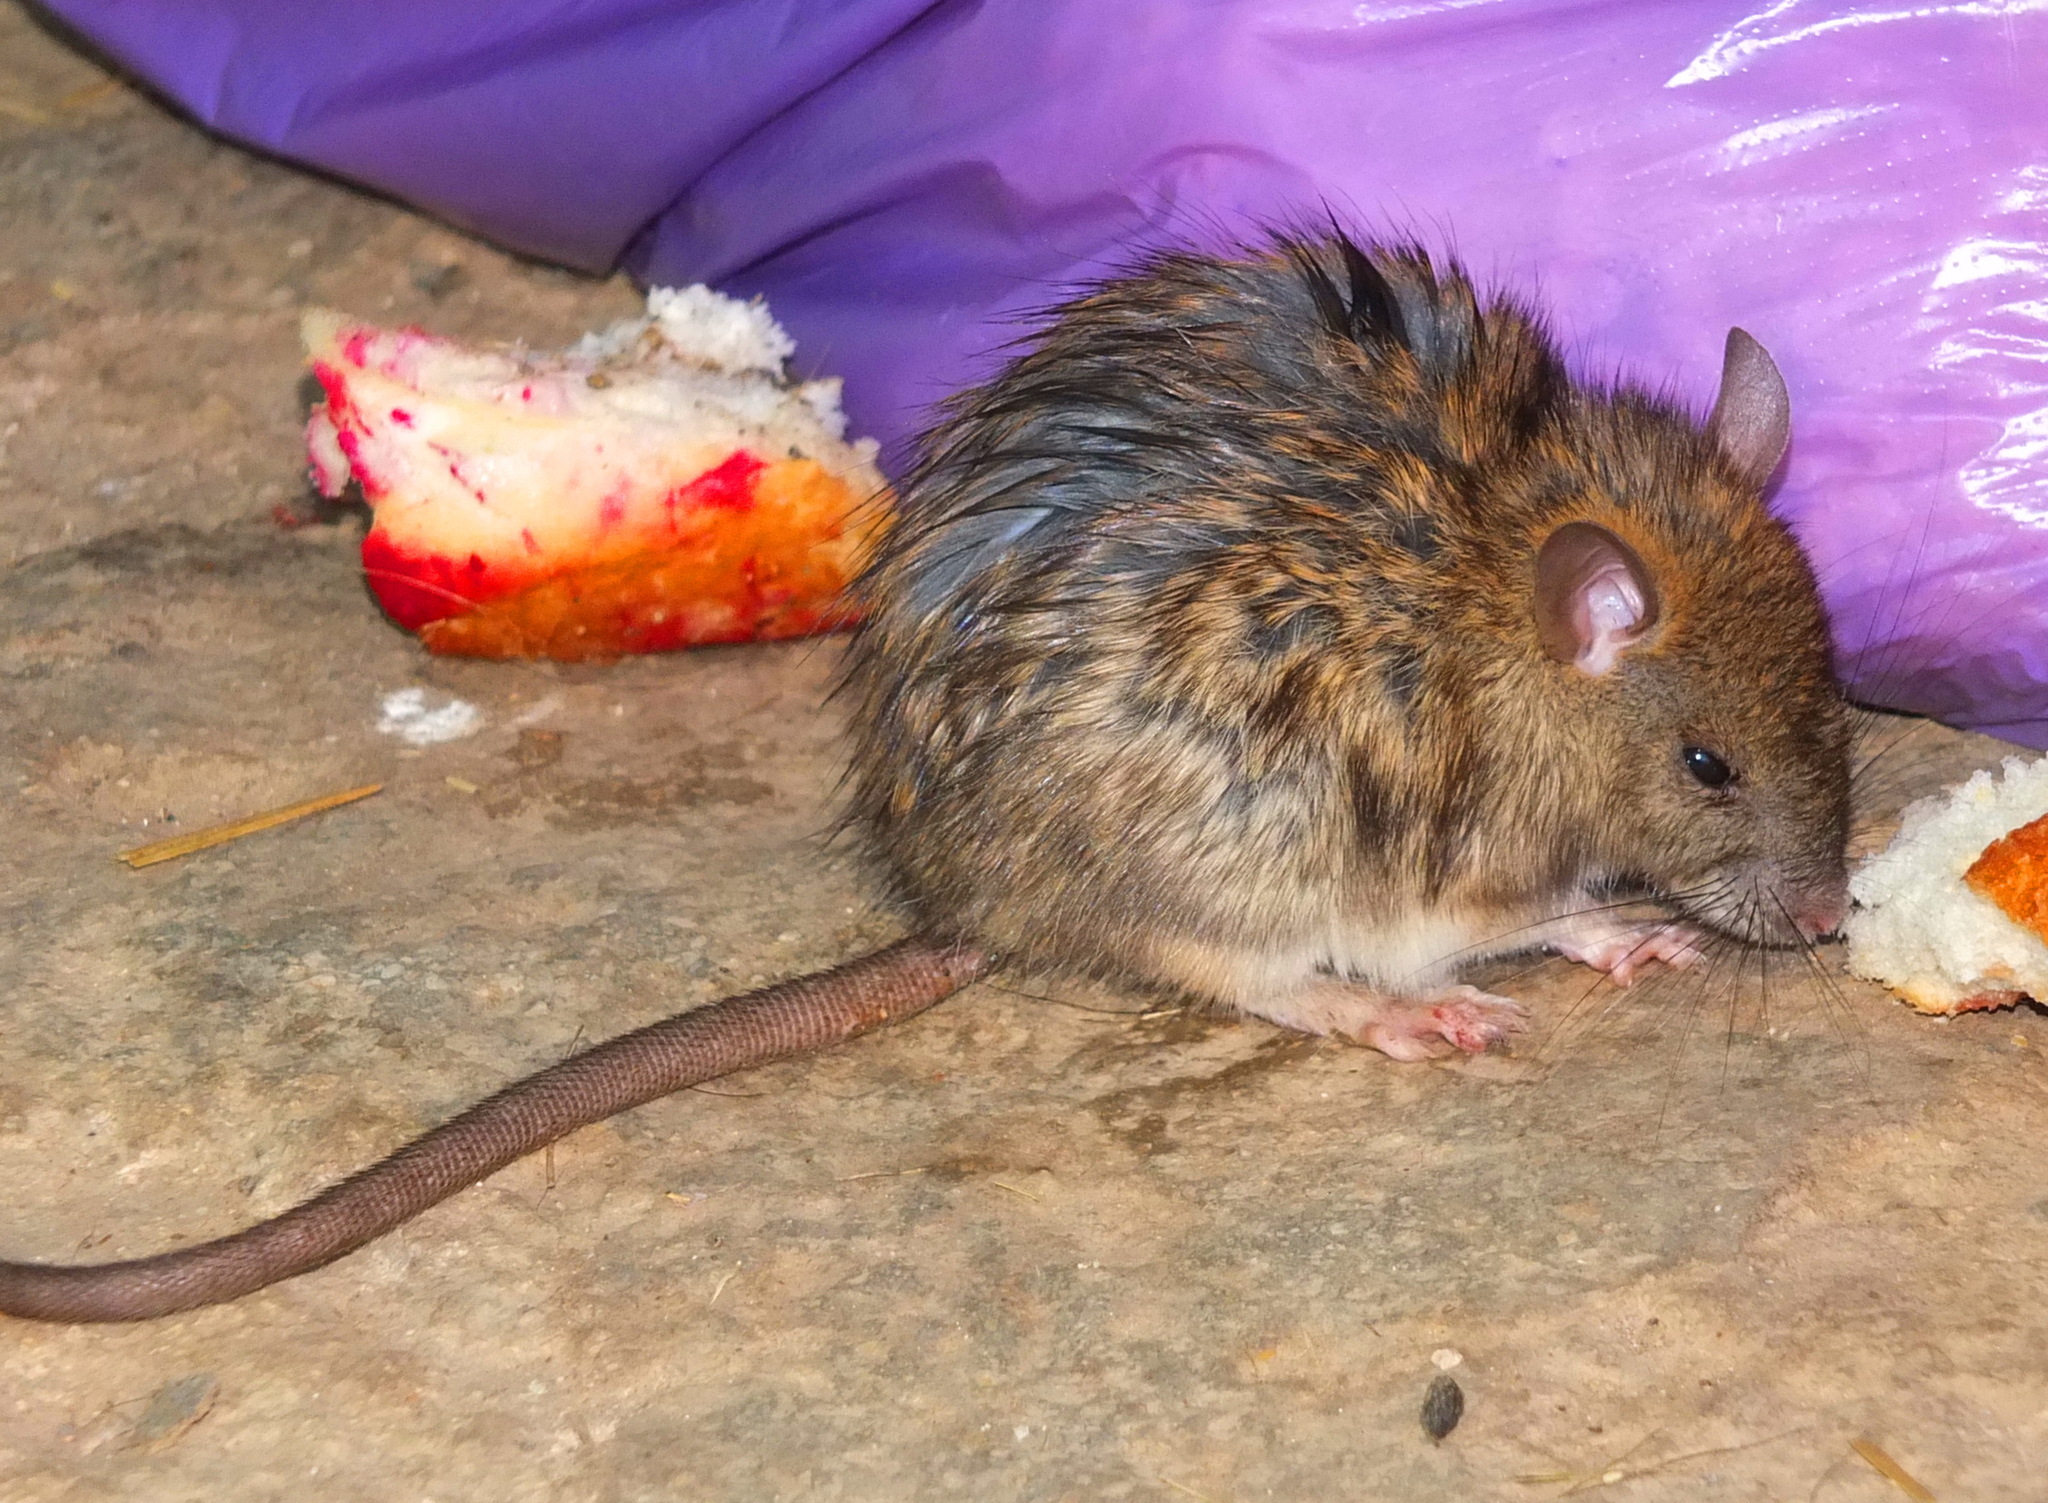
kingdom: Animalia
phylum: Chordata
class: Mammalia
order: Rodentia
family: Muridae
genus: Rattus
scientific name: Rattus rattus
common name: Black rat
